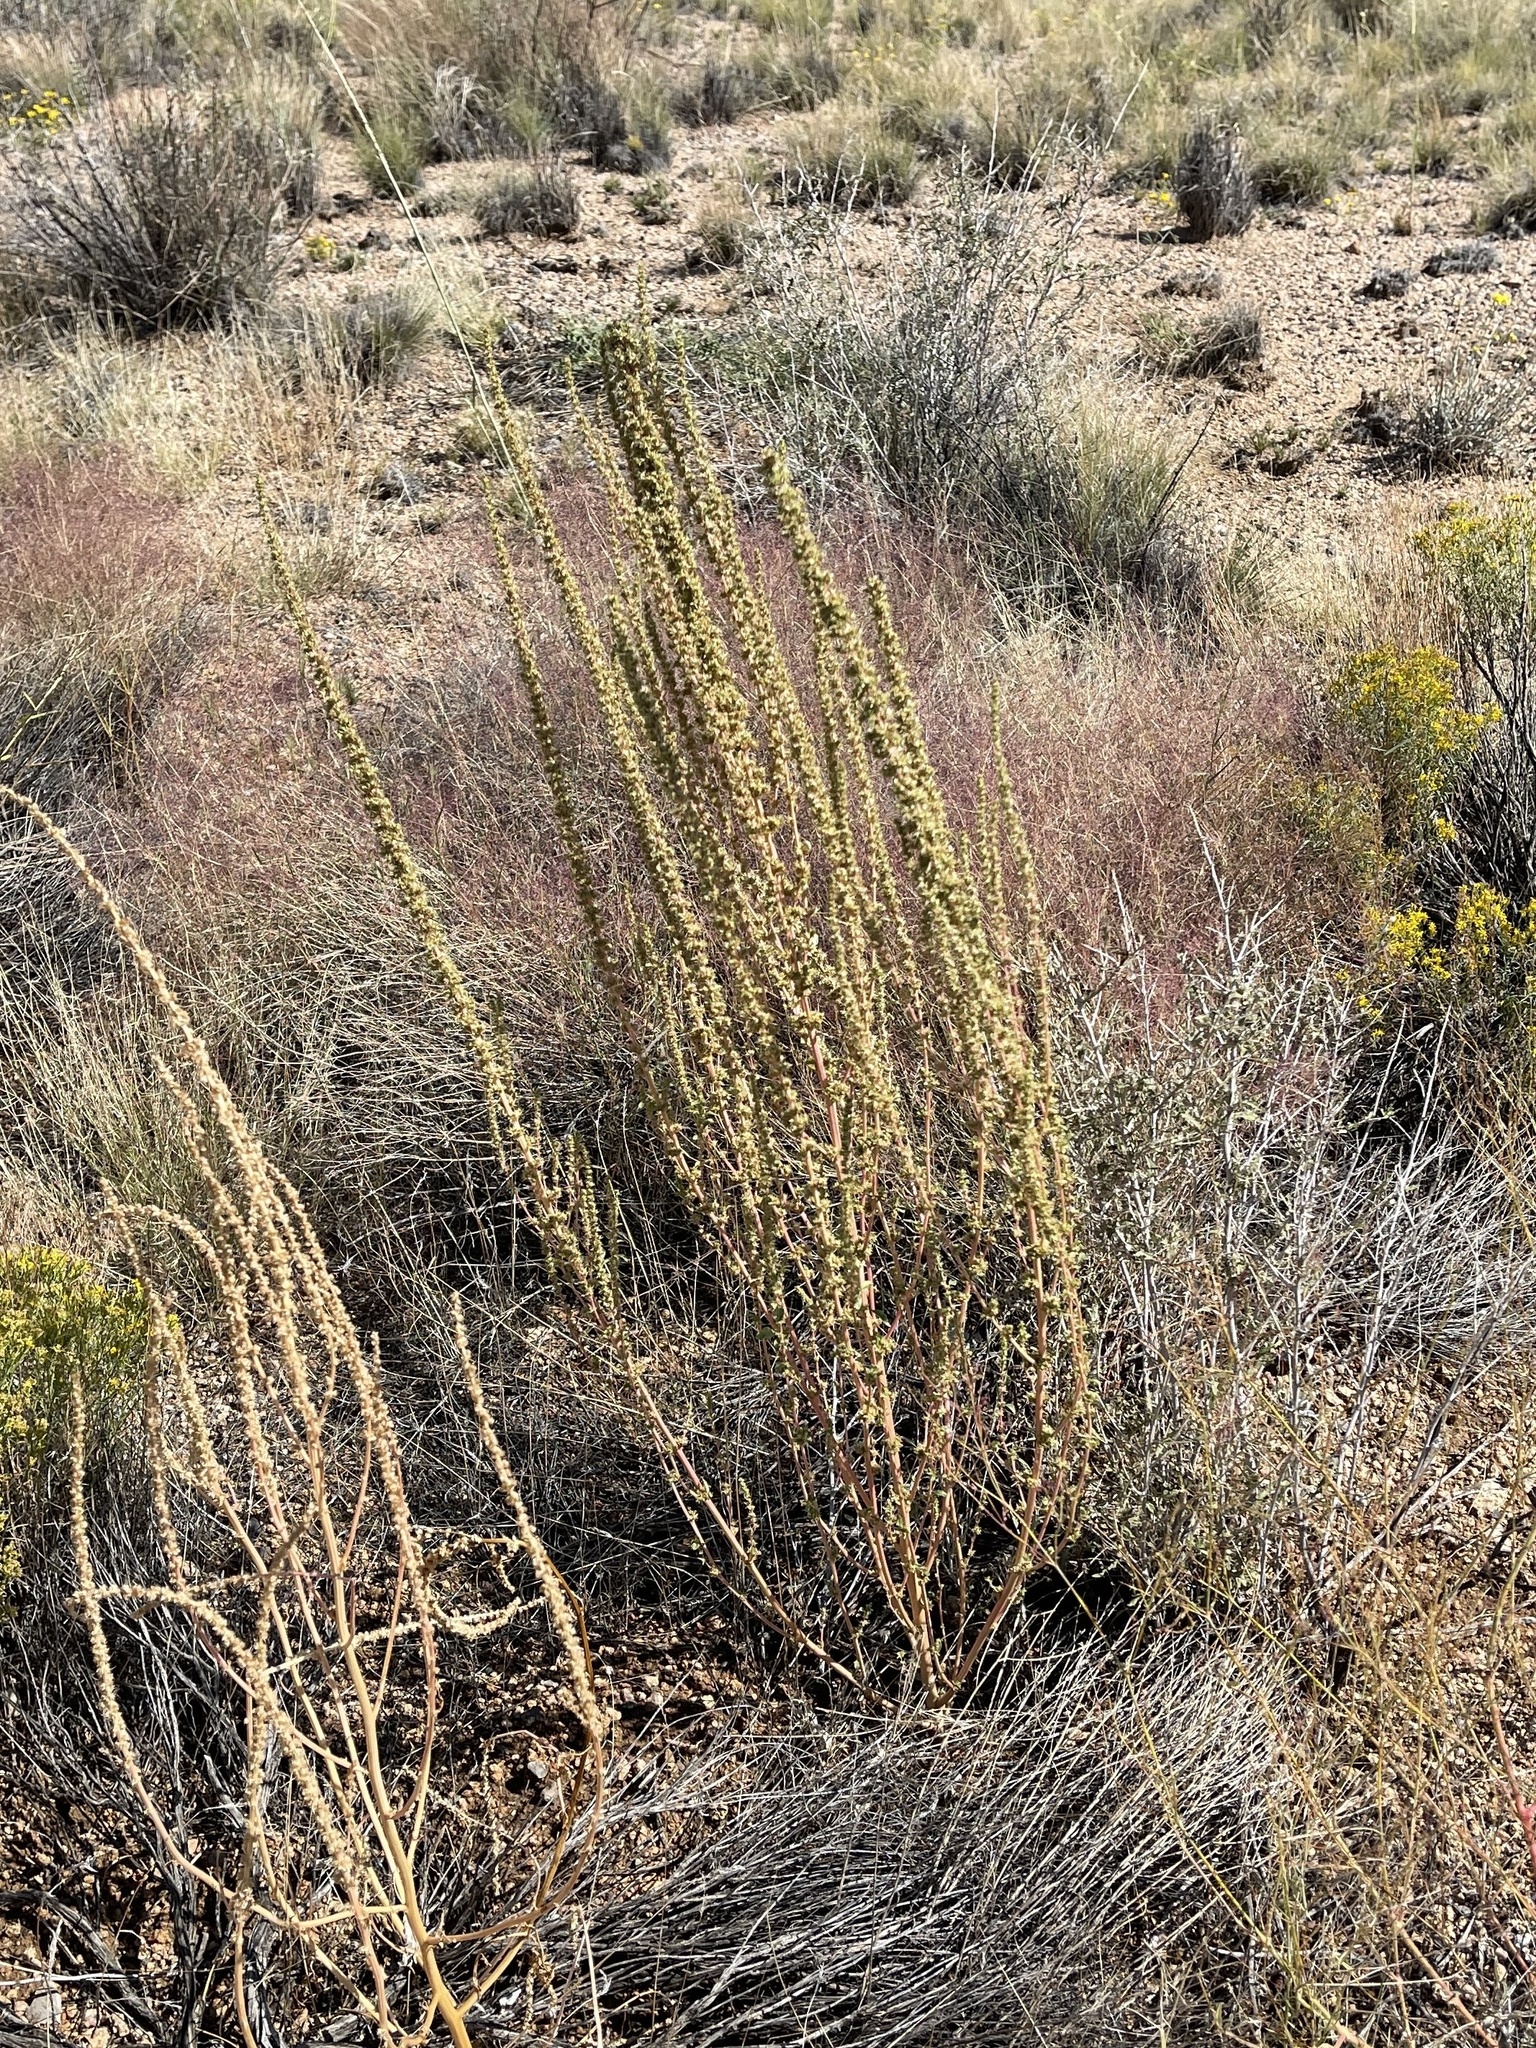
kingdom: Plantae
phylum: Tracheophyta
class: Magnoliopsida
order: Caryophyllales
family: Amaranthaceae
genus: Amaranthus
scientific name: Amaranthus fimbriatus
